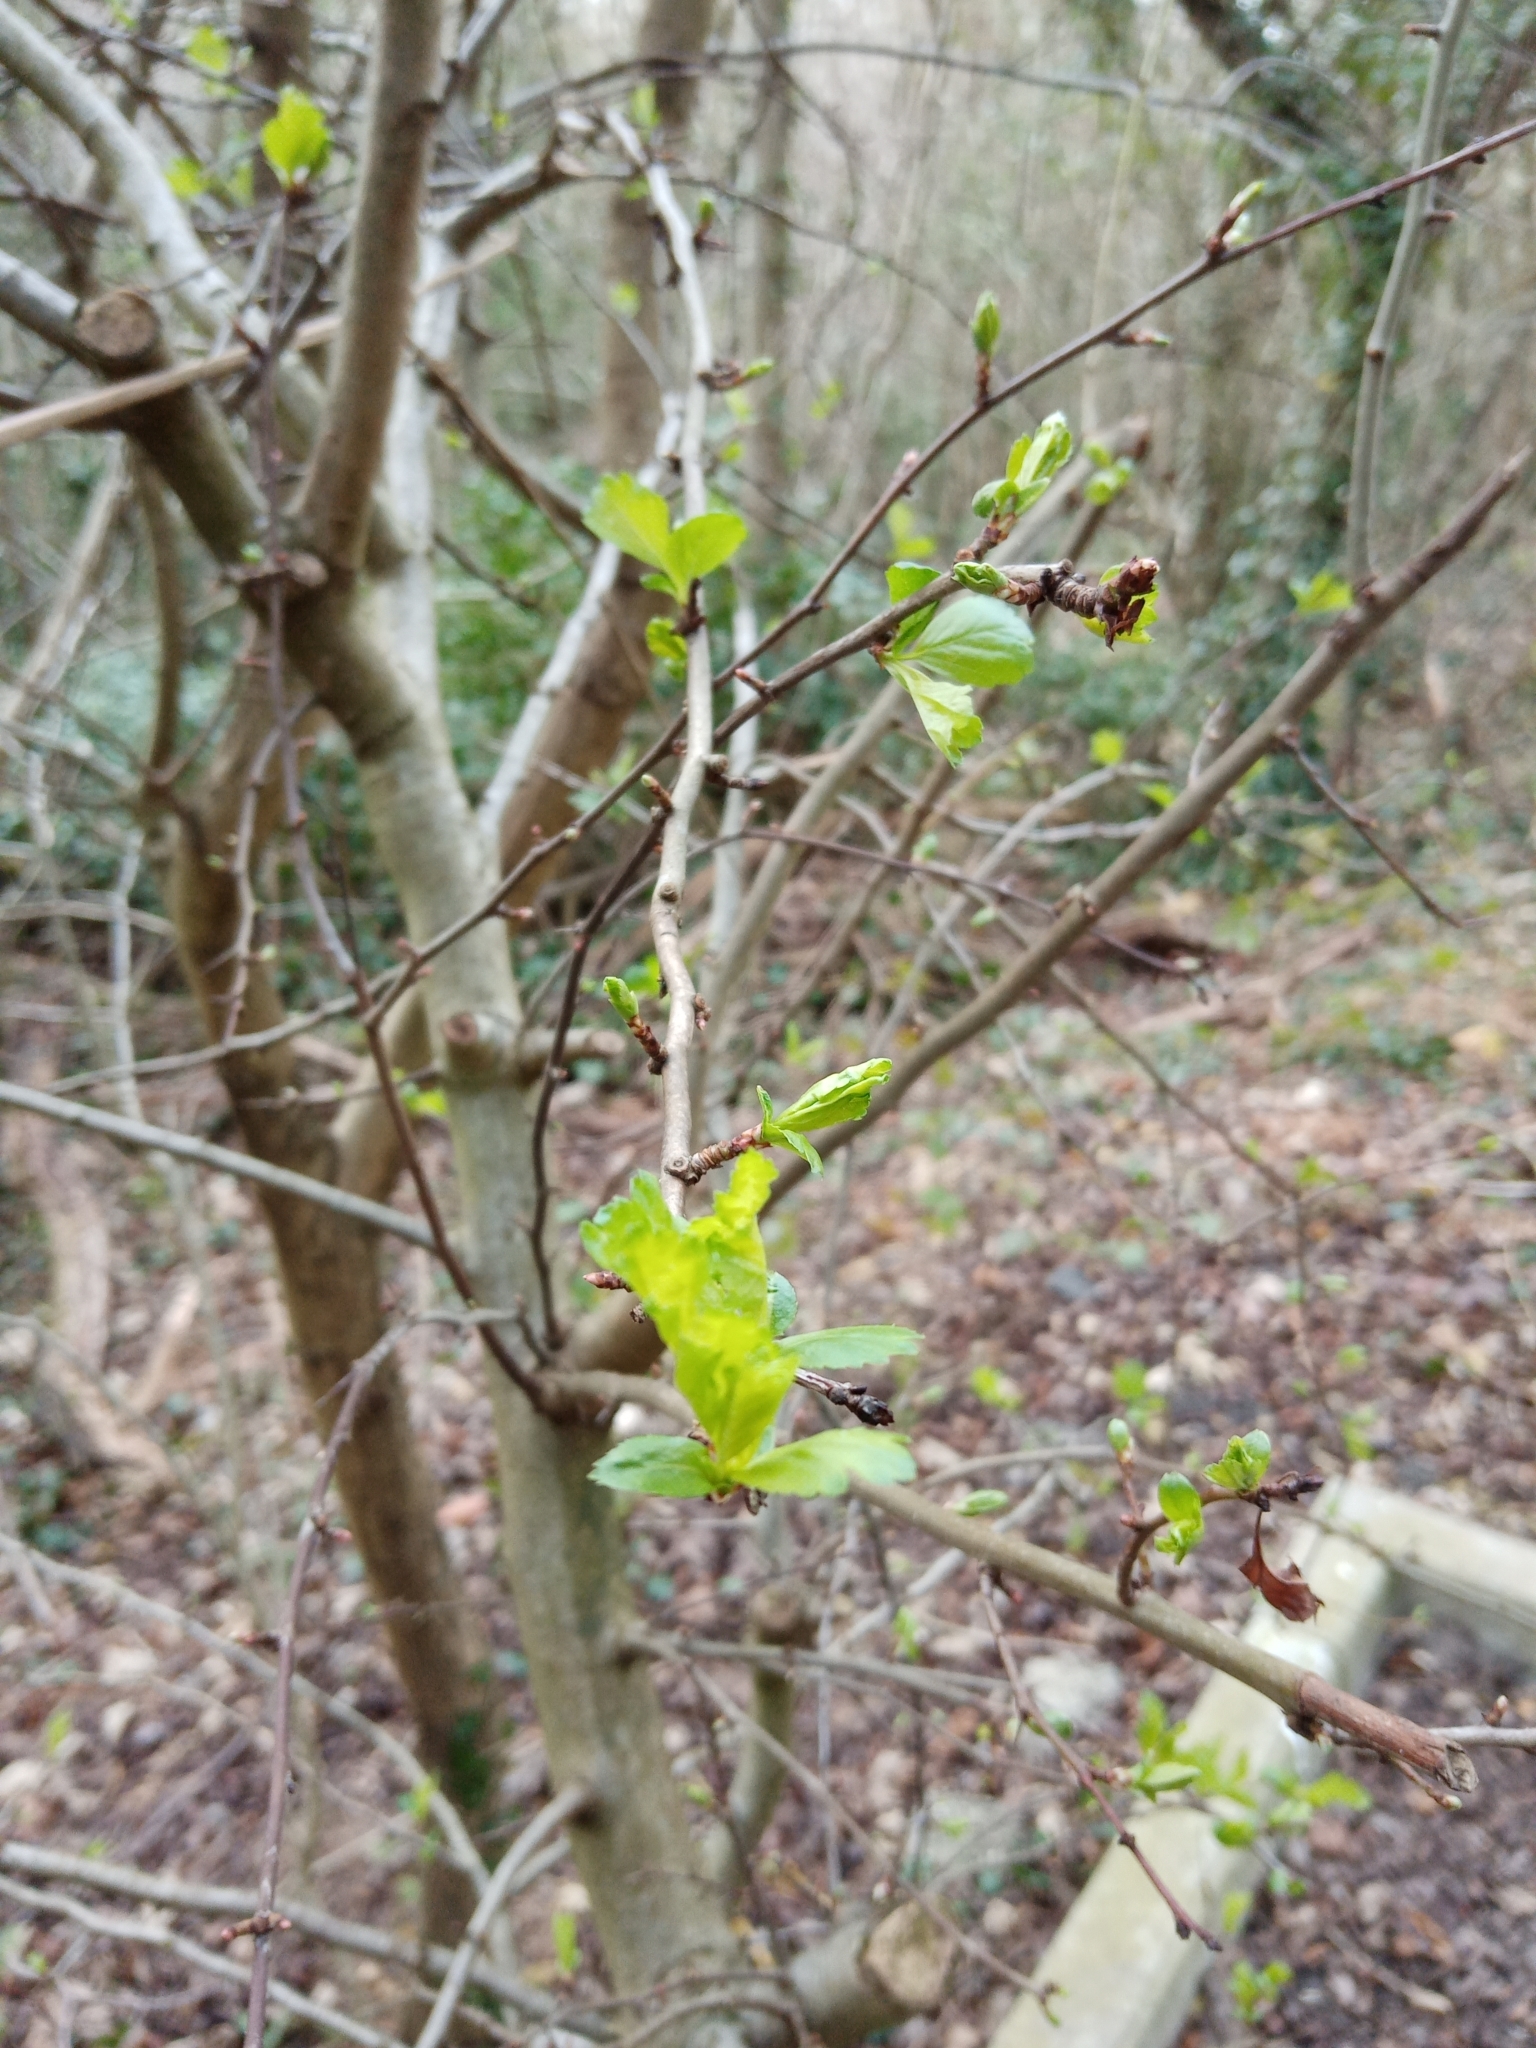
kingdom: Plantae
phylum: Tracheophyta
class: Magnoliopsida
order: Rosales
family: Rosaceae
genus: Crataegus
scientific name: Crataegus monogyna
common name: Hawthorn
